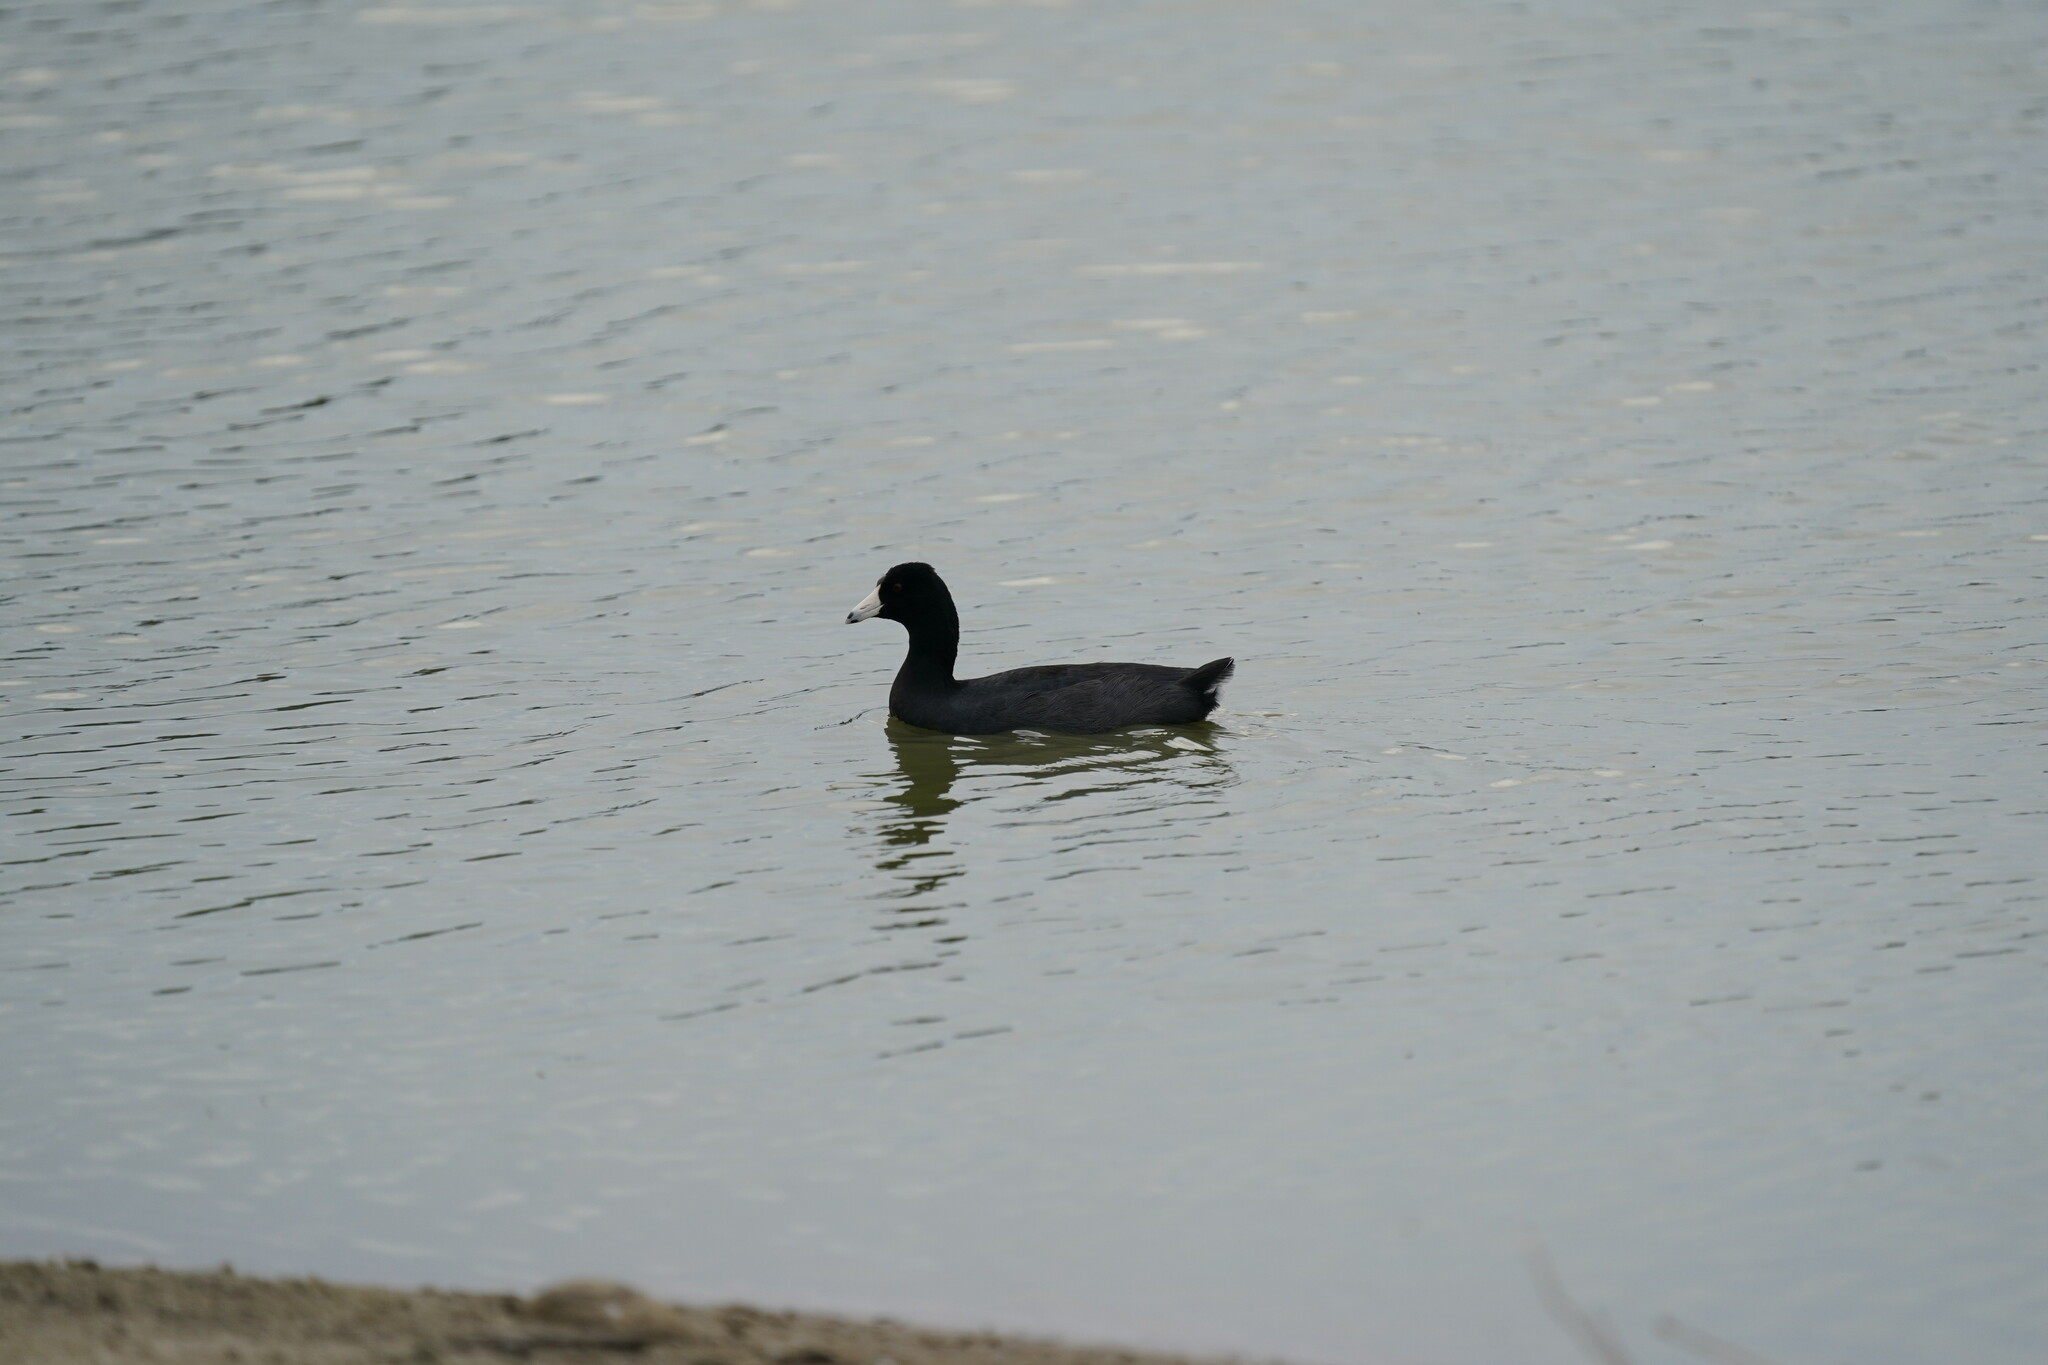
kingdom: Animalia
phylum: Chordata
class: Aves
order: Gruiformes
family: Rallidae
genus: Fulica
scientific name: Fulica americana
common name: American coot
